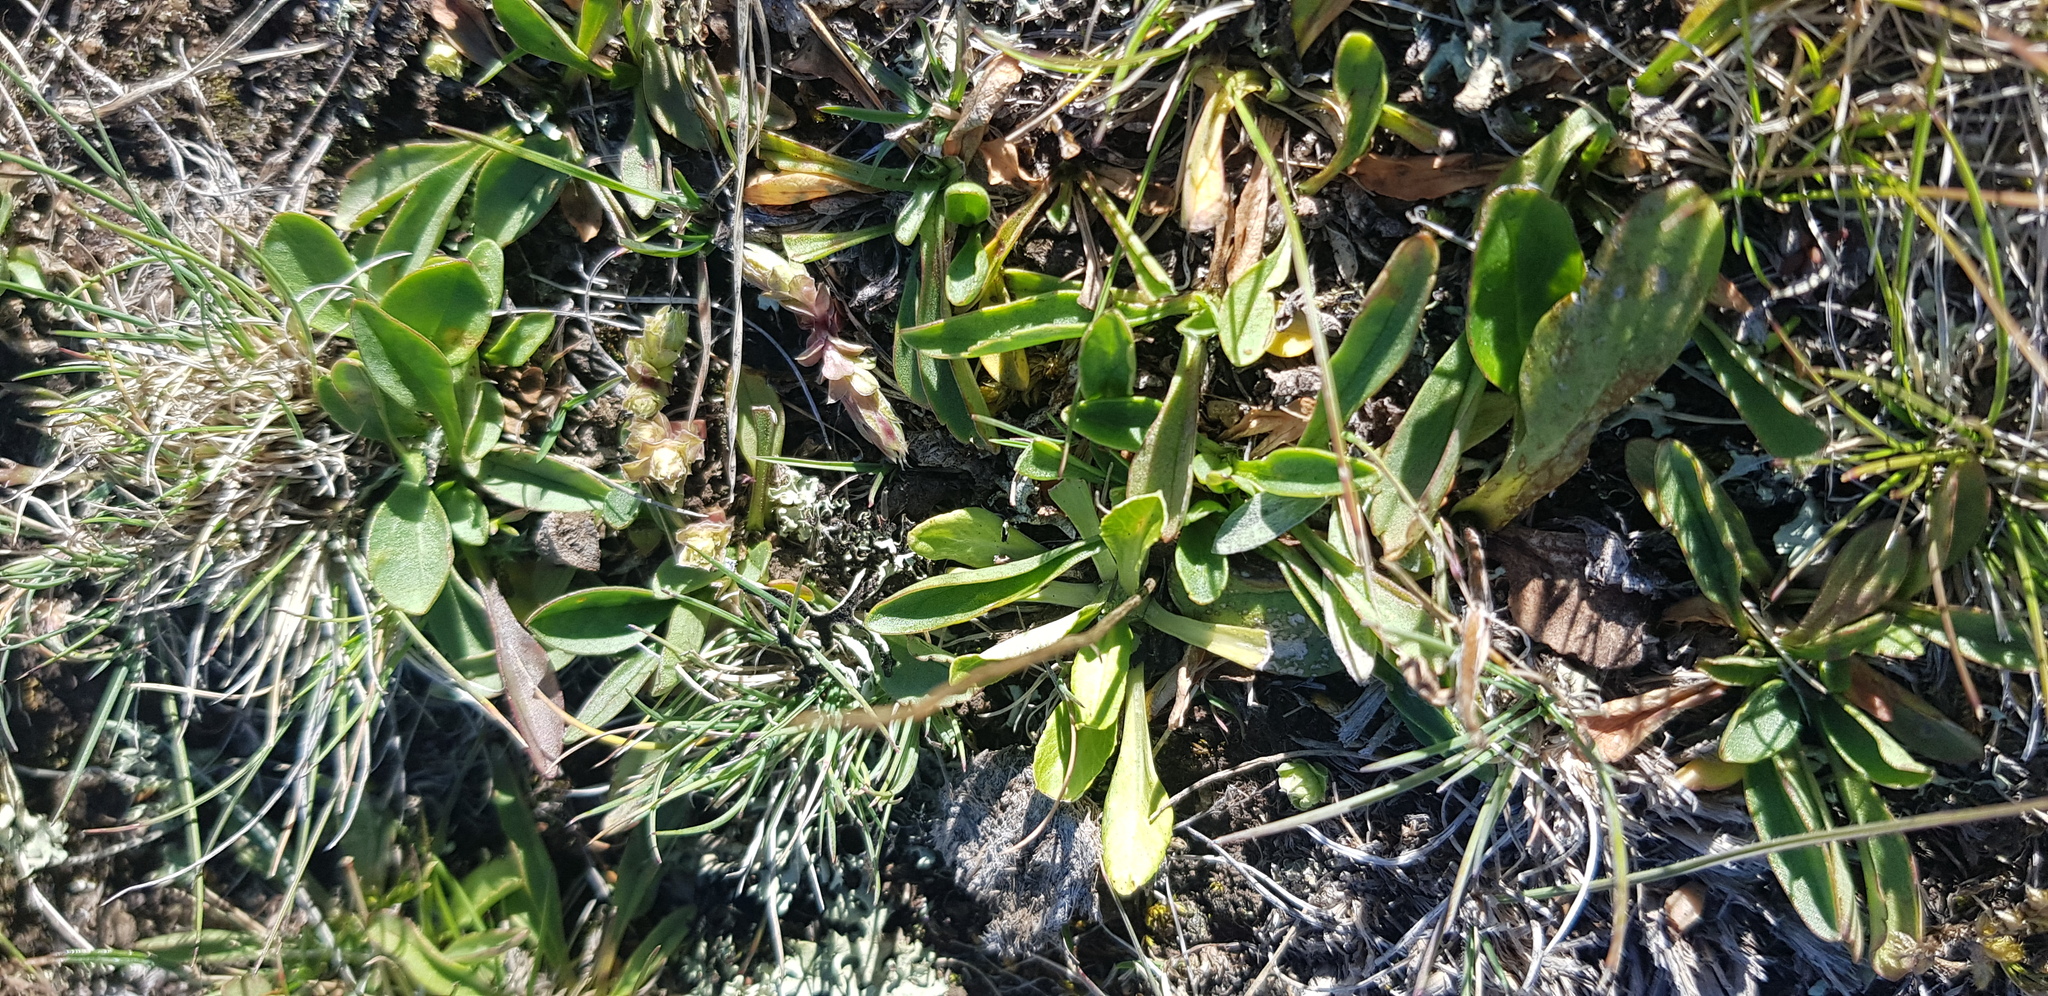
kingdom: Plantae
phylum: Tracheophyta
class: Magnoliopsida
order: Dipsacales
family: Caprifoliaceae
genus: Patrinia
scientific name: Patrinia sibirica
